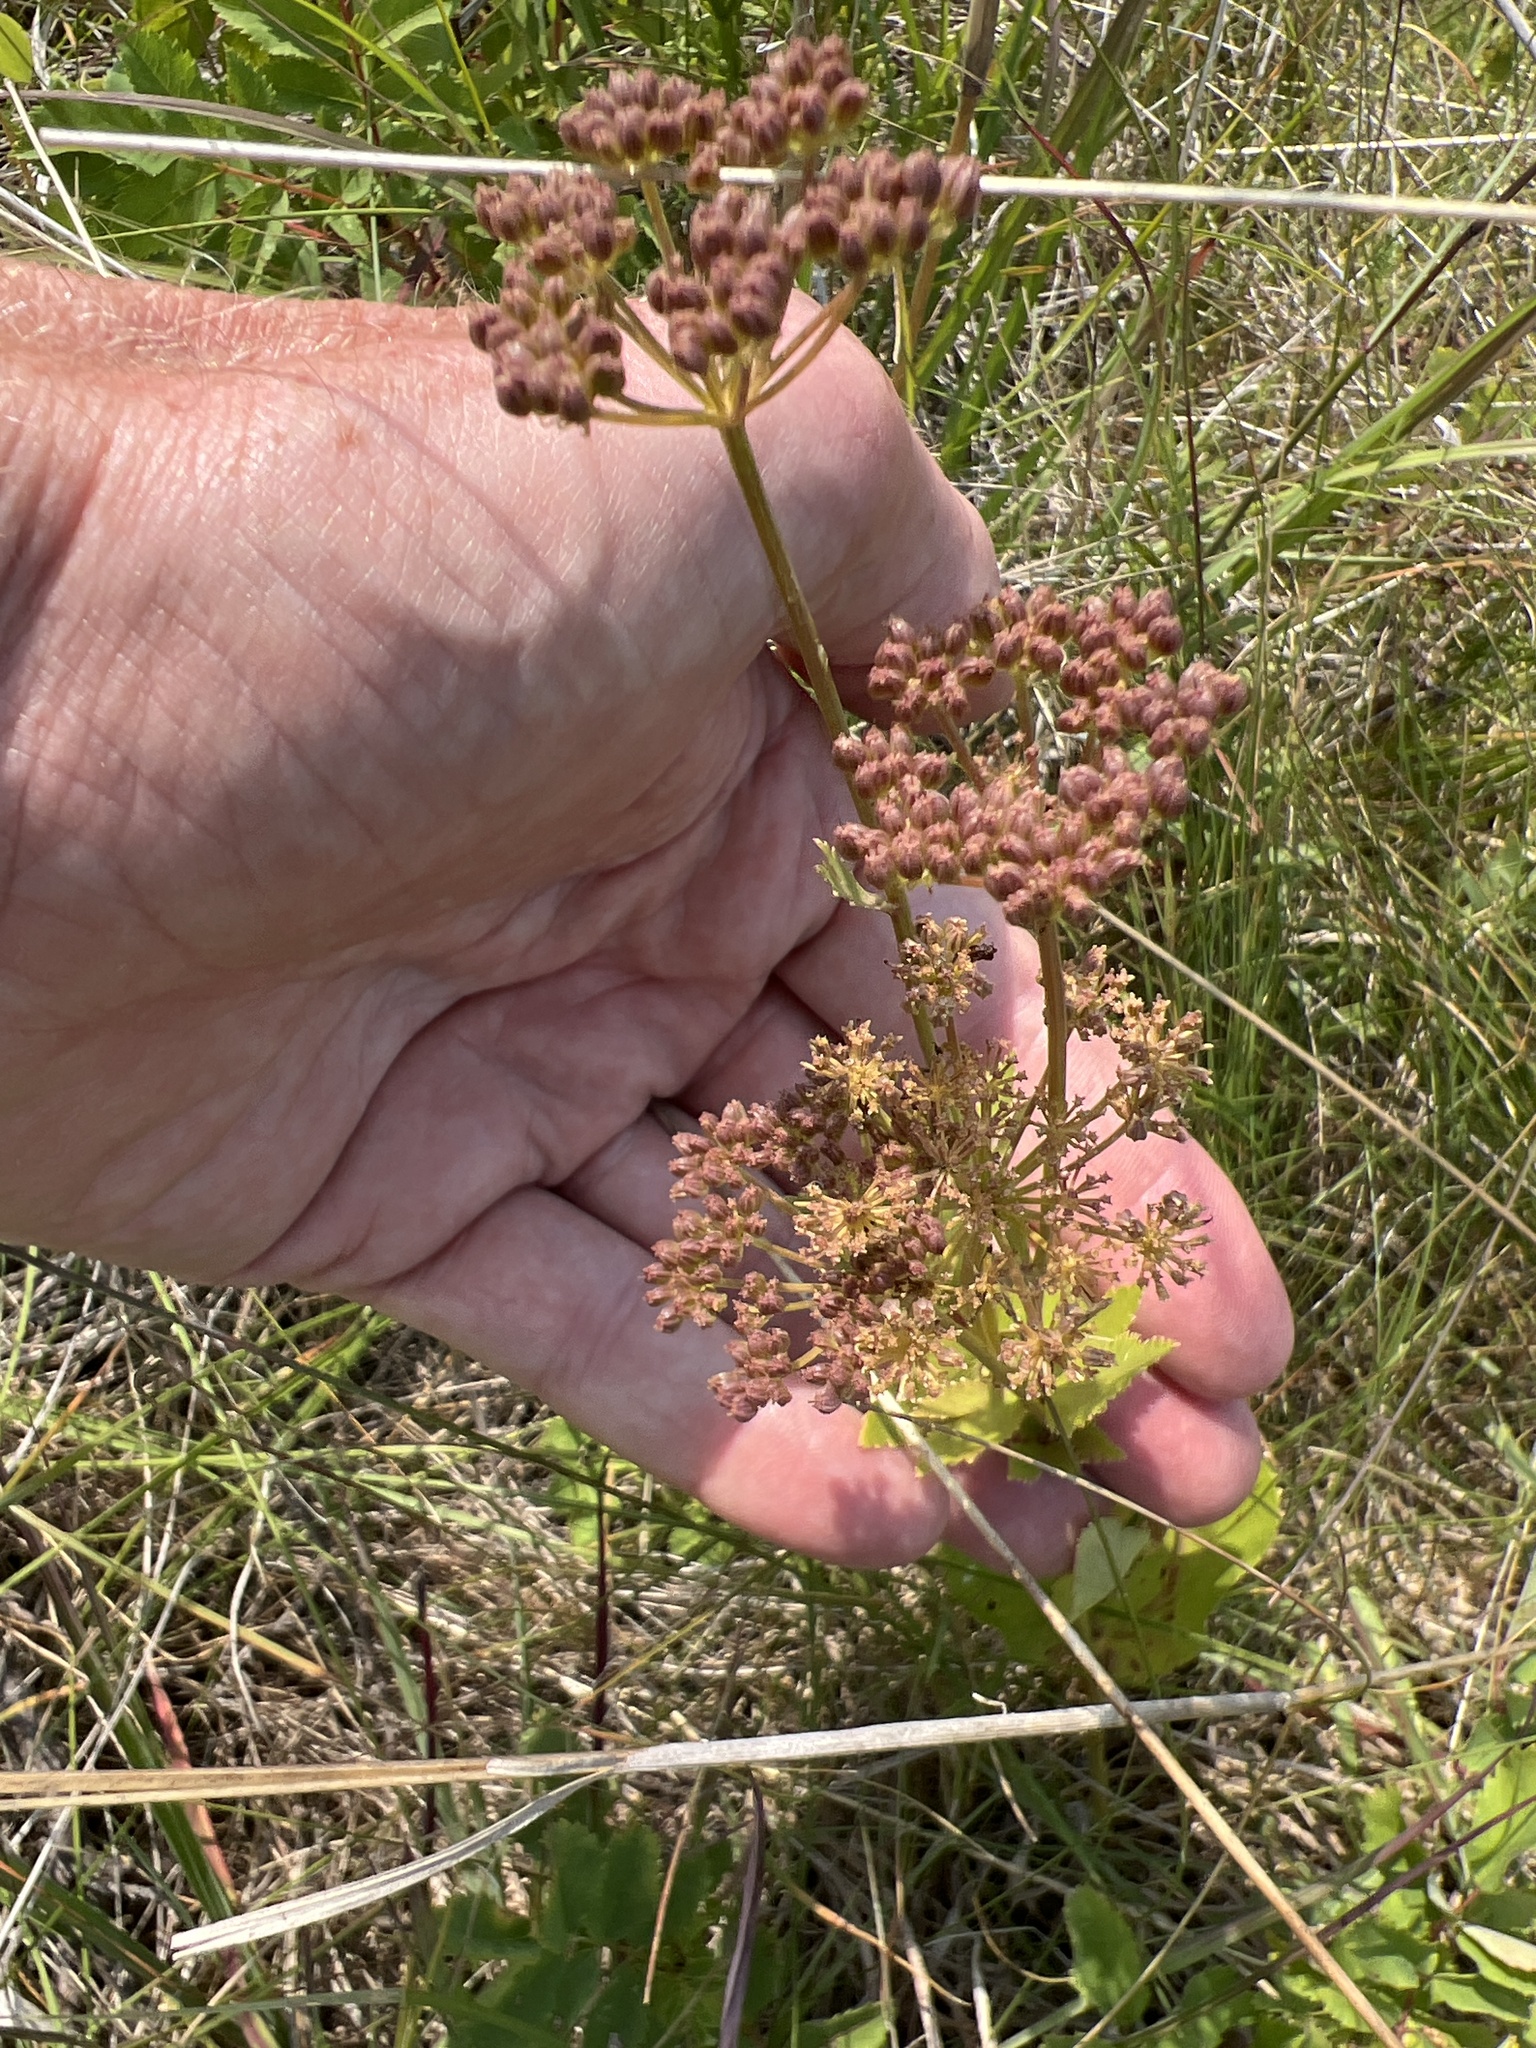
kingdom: Plantae
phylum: Tracheophyta
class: Magnoliopsida
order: Apiales
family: Apiaceae
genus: Zizia
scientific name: Zizia aptera
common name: Heart-leaved alexanders
